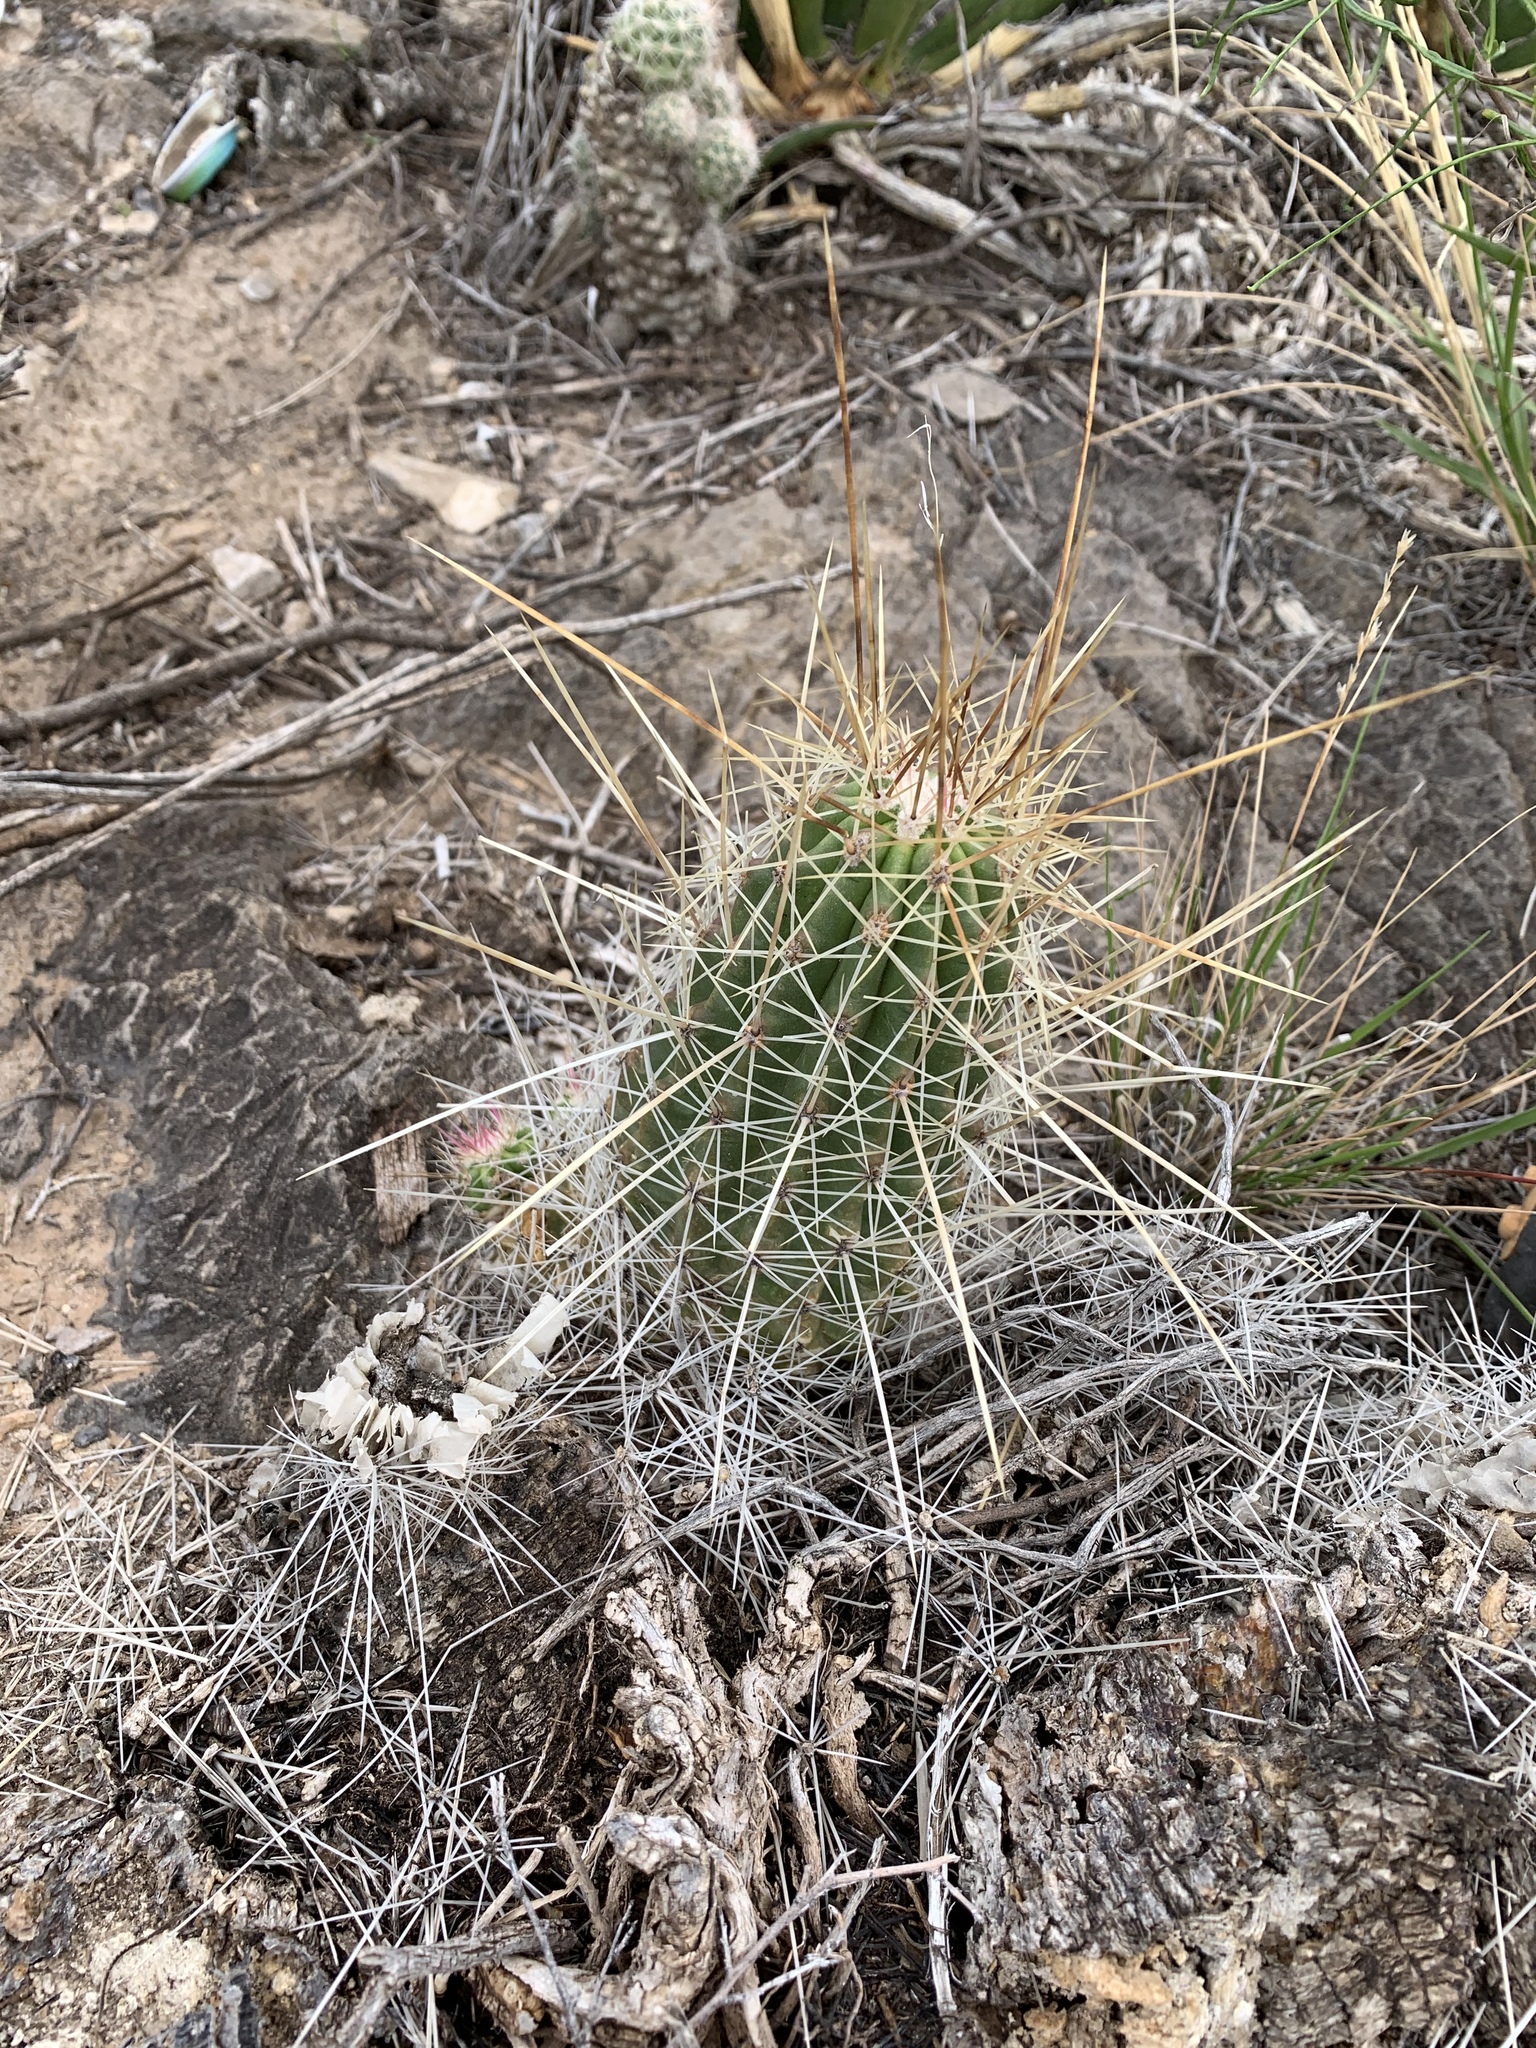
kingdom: Plantae
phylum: Tracheophyta
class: Magnoliopsida
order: Caryophyllales
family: Cactaceae
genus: Echinocereus
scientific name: Echinocereus stramineus
